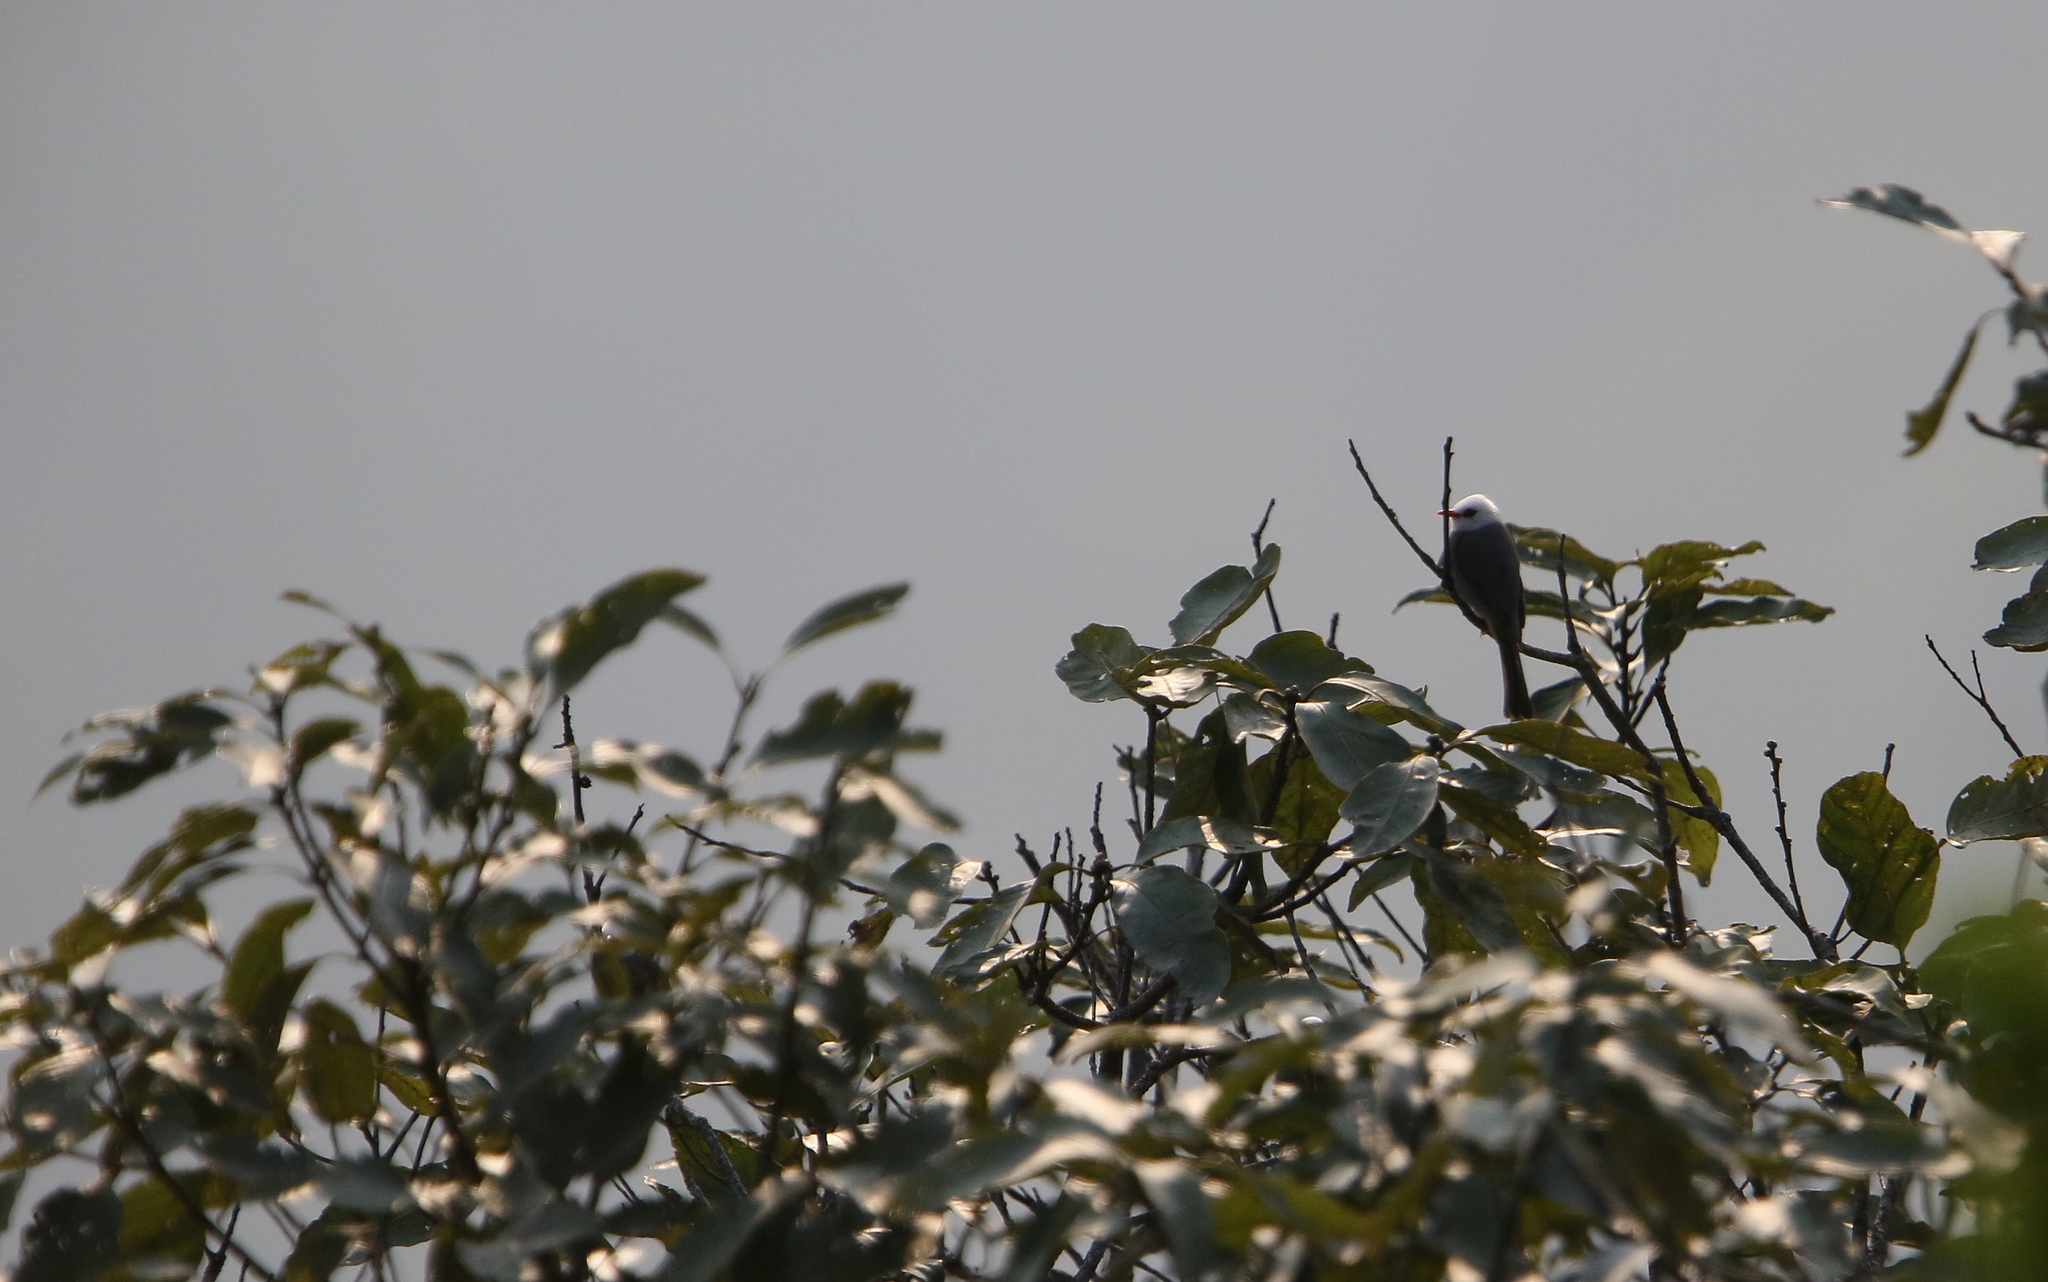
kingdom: Animalia
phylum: Chordata
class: Aves
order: Passeriformes
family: Pycnonotidae
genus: Cerasophila
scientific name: Cerasophila thompsoni
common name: White-headed bulbul
